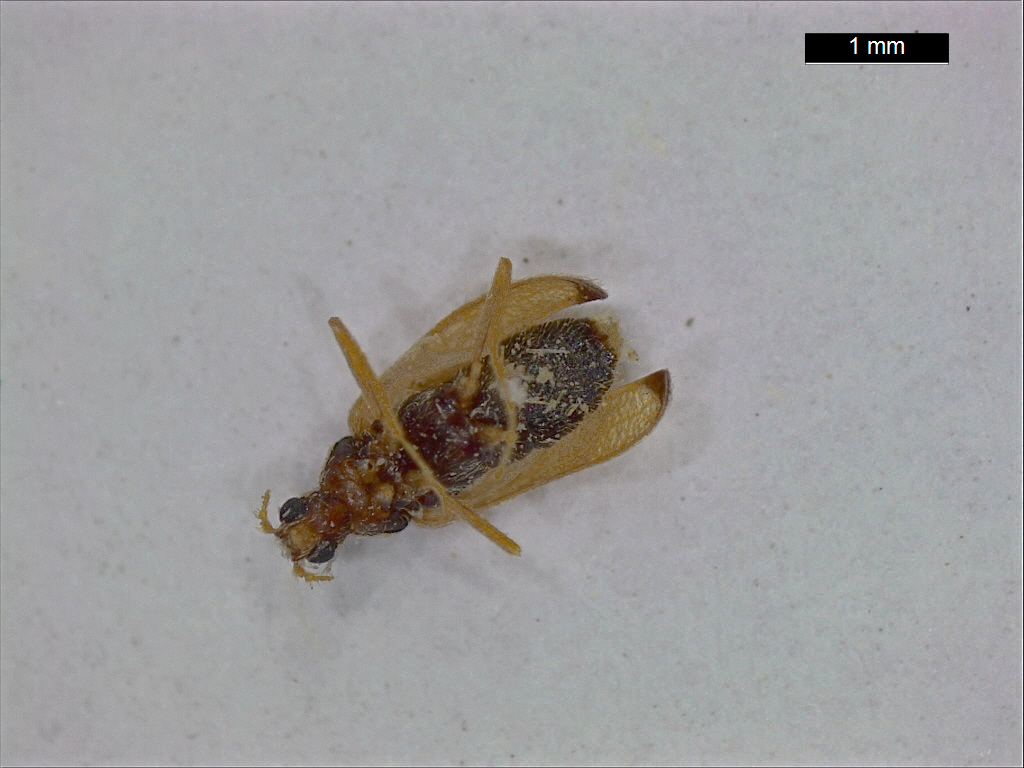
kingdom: Animalia
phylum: Arthropoda
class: Insecta
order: Coleoptera
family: Dermestidae
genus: Thylodrias
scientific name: Thylodrias contractus
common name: Odd beetle
